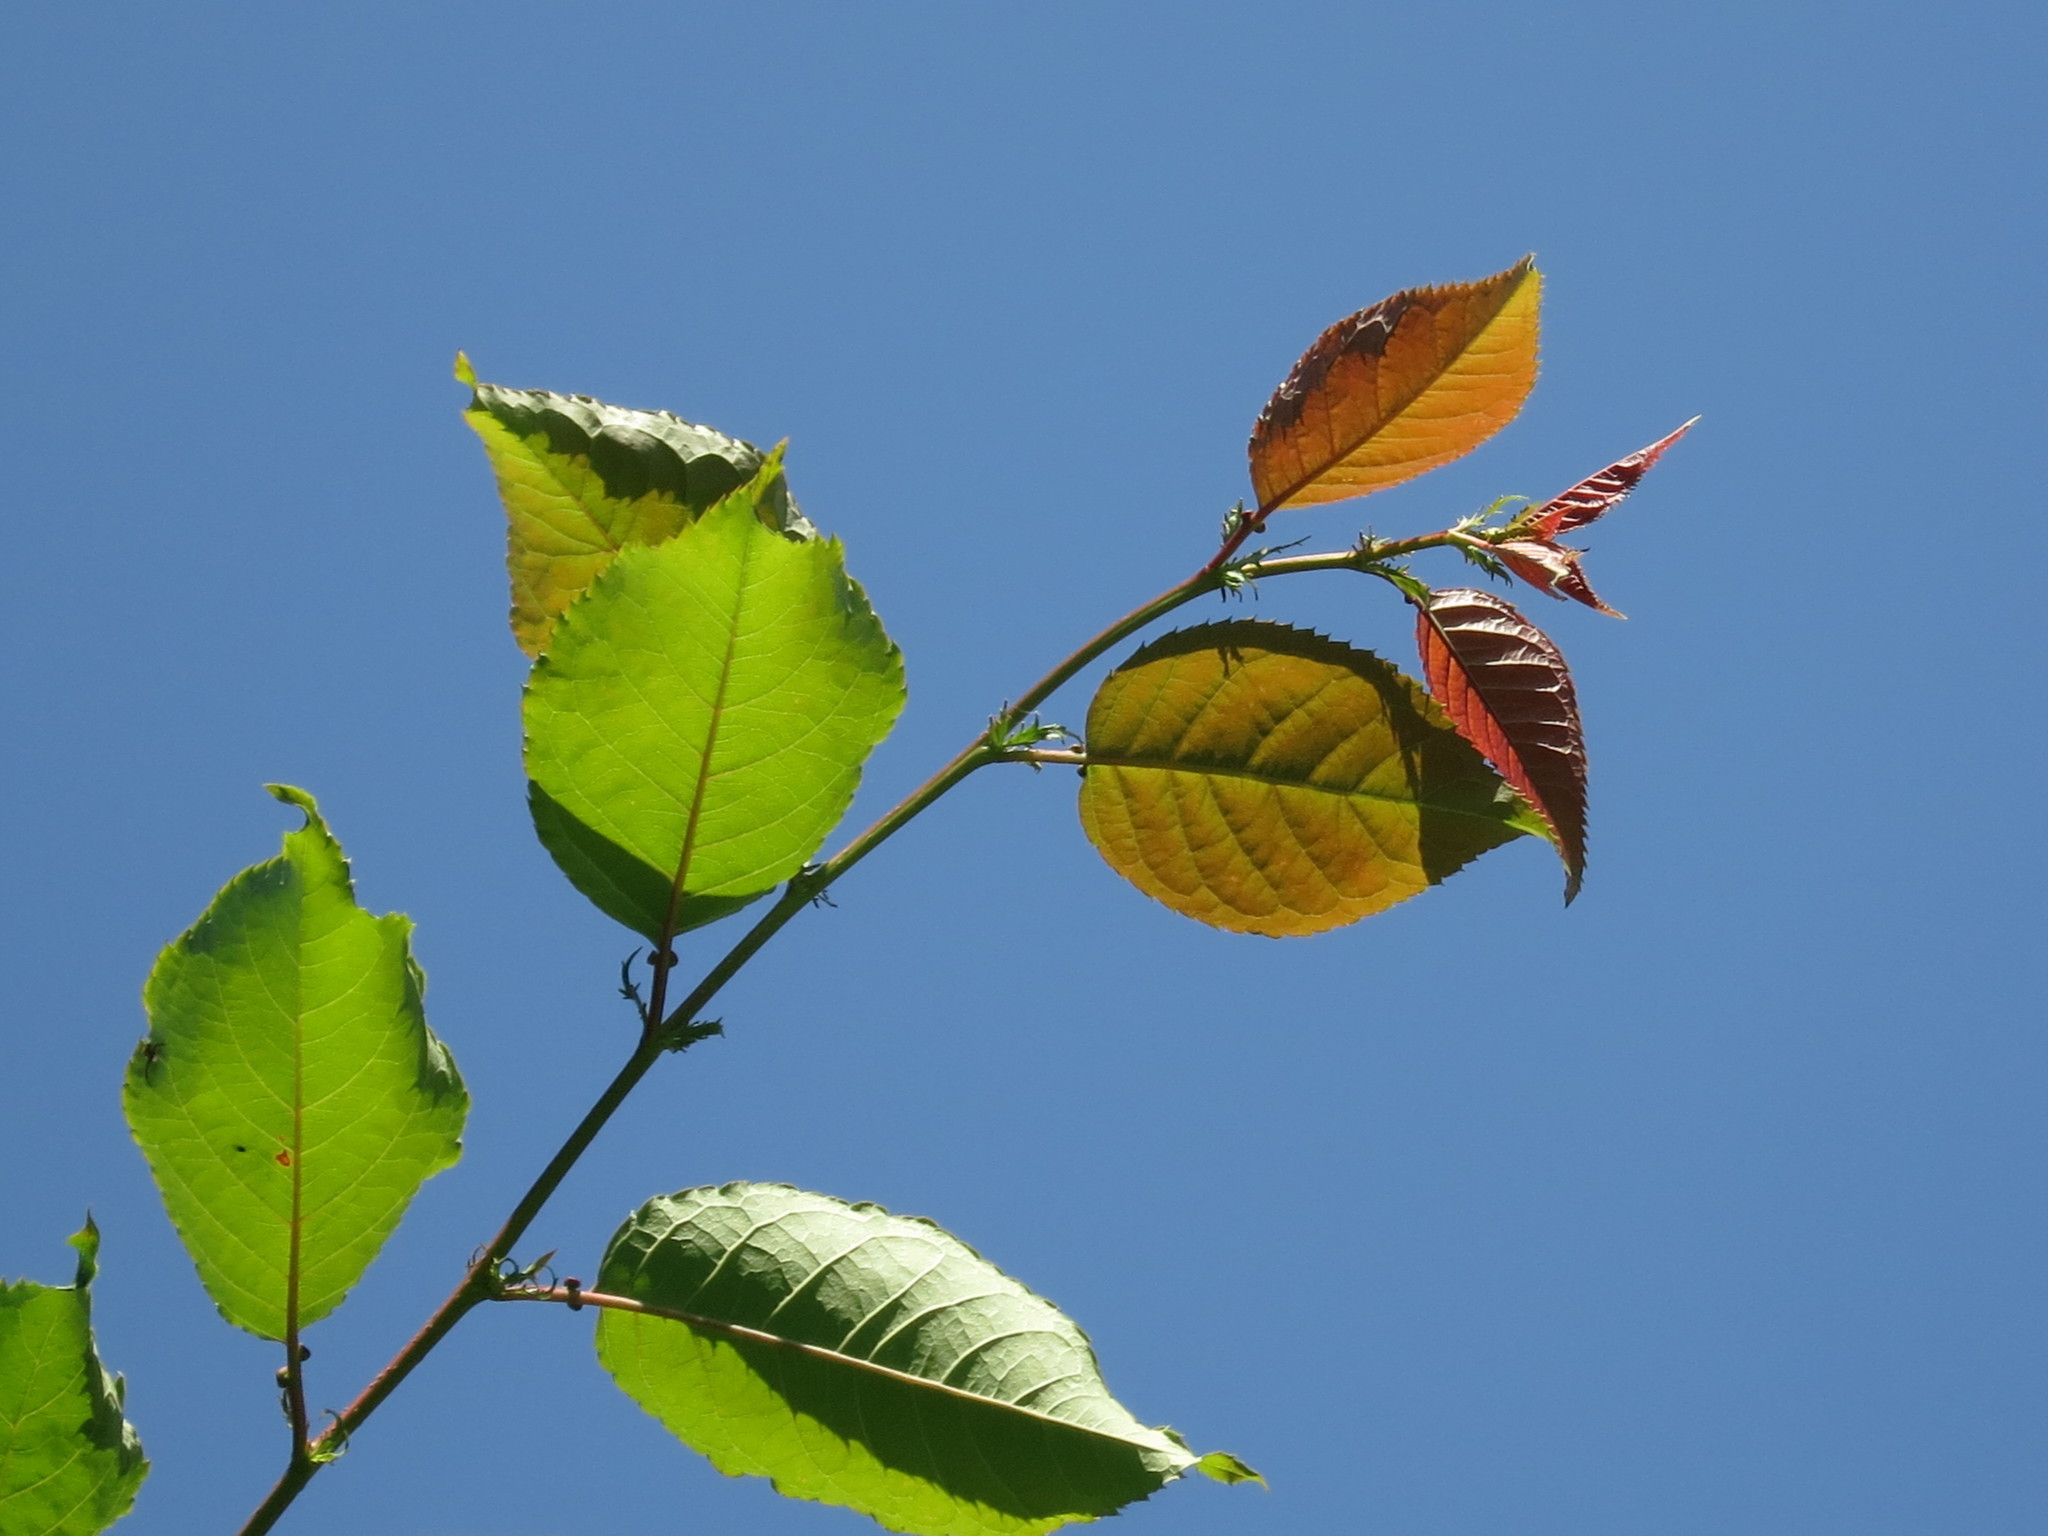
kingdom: Plantae
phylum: Tracheophyta
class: Magnoliopsida
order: Rosales
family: Rosaceae
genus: Prunus
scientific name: Prunus sargentii
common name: Sargent cherry
